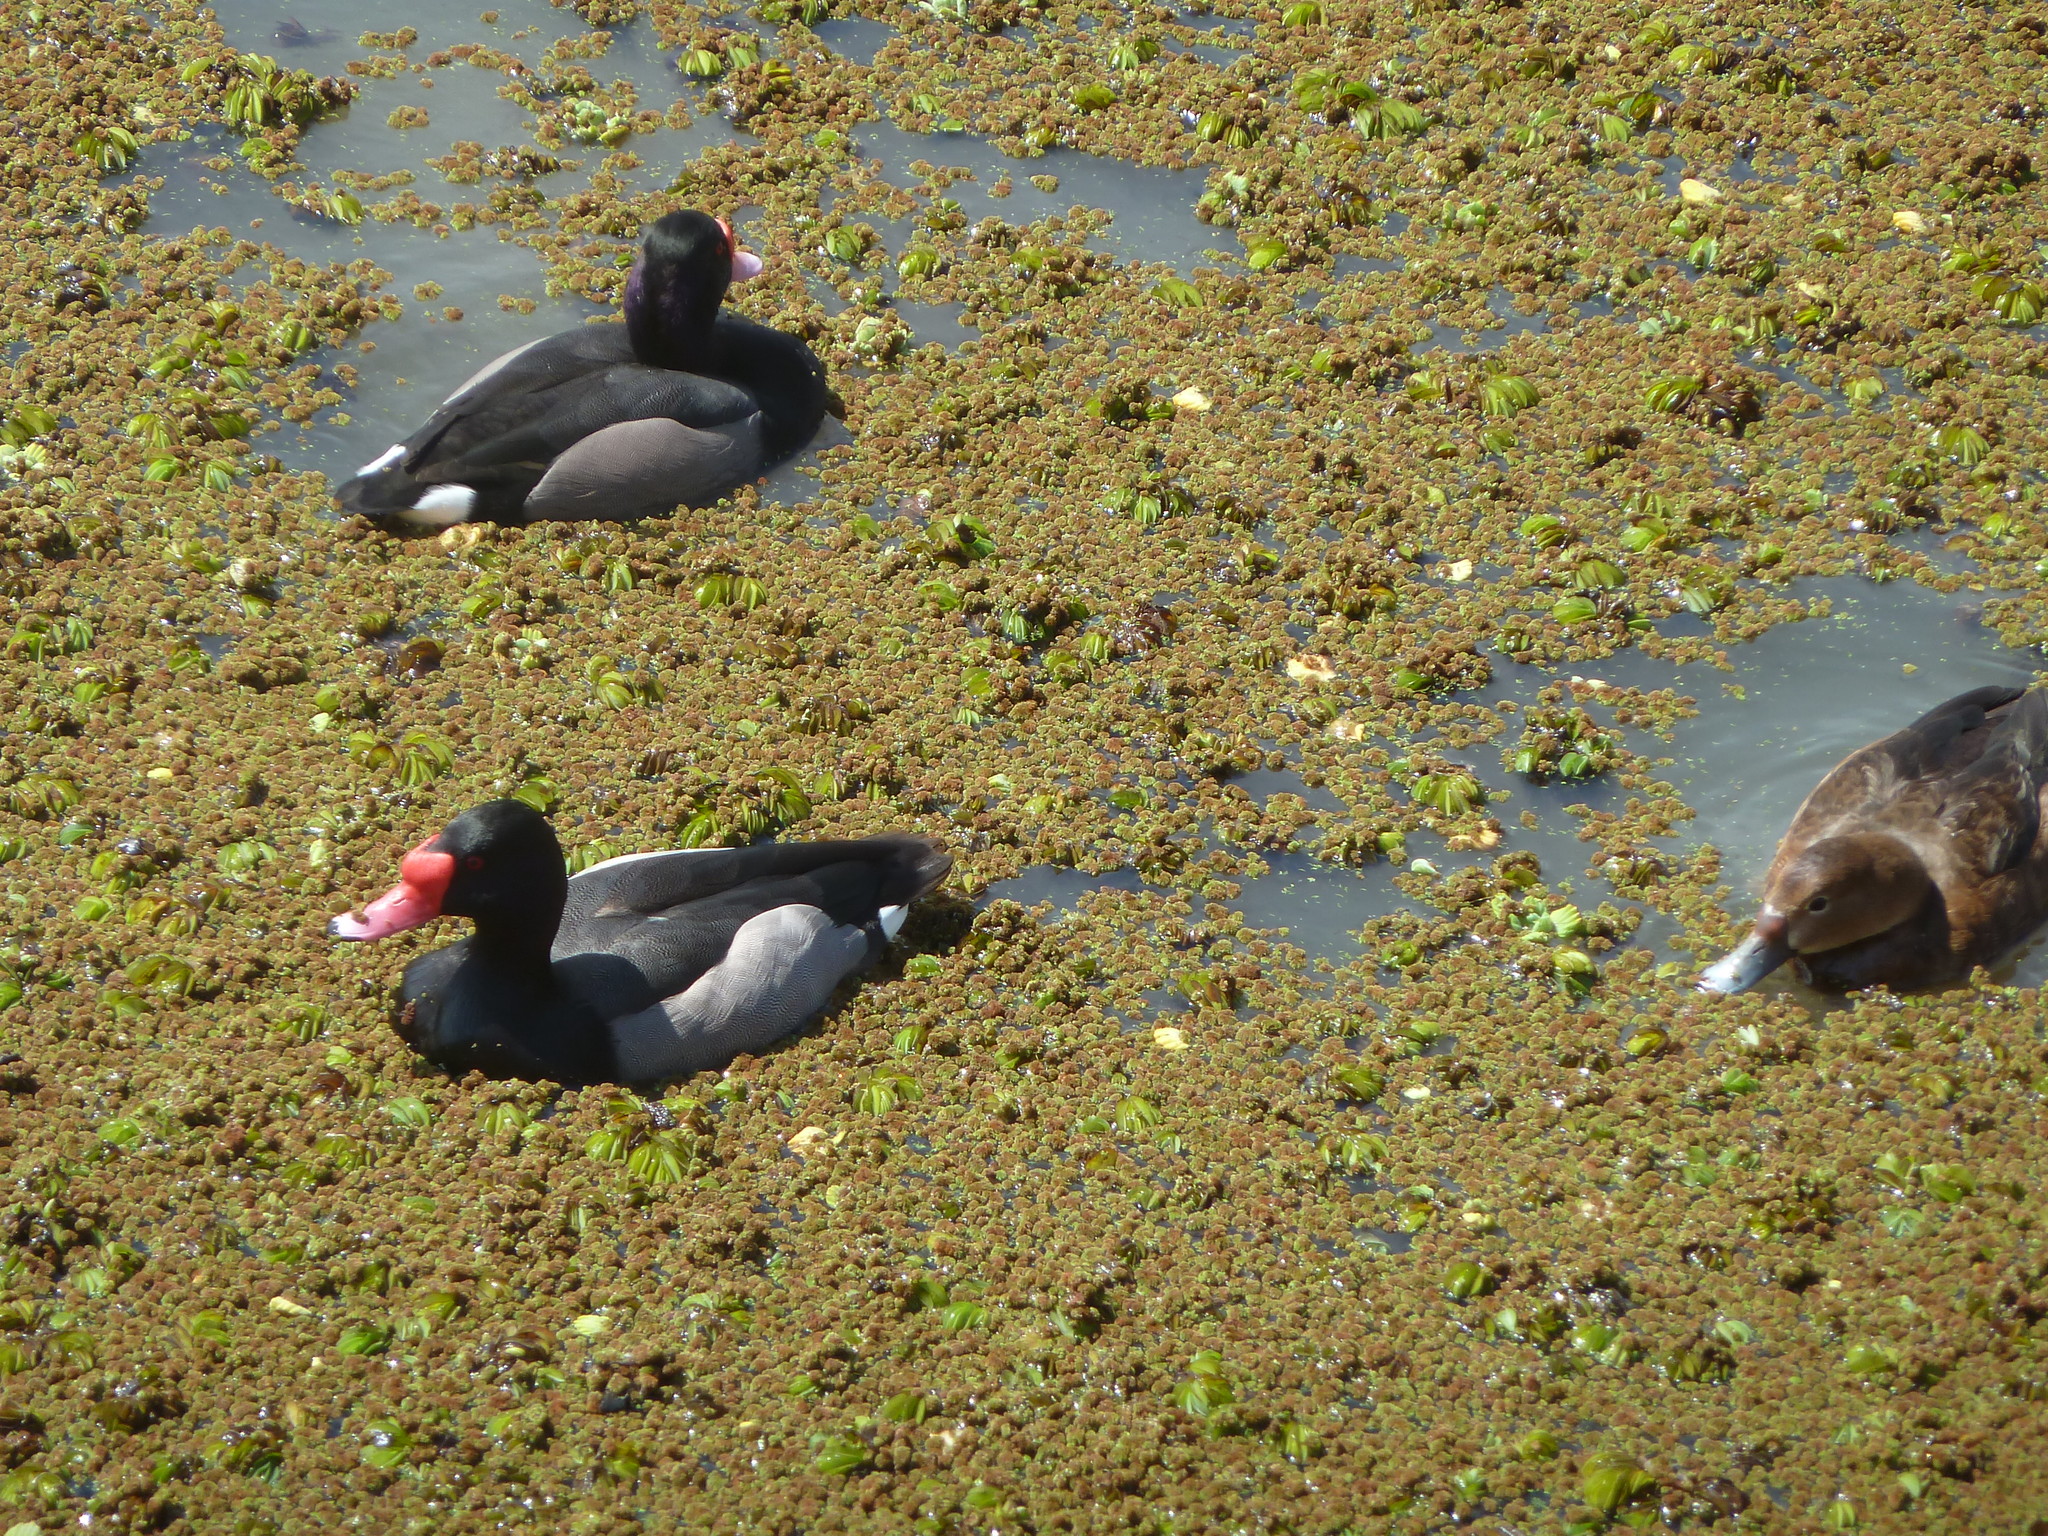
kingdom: Animalia
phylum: Chordata
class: Aves
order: Anseriformes
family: Anatidae
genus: Netta
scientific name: Netta peposaca
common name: Rosy-billed pochard
